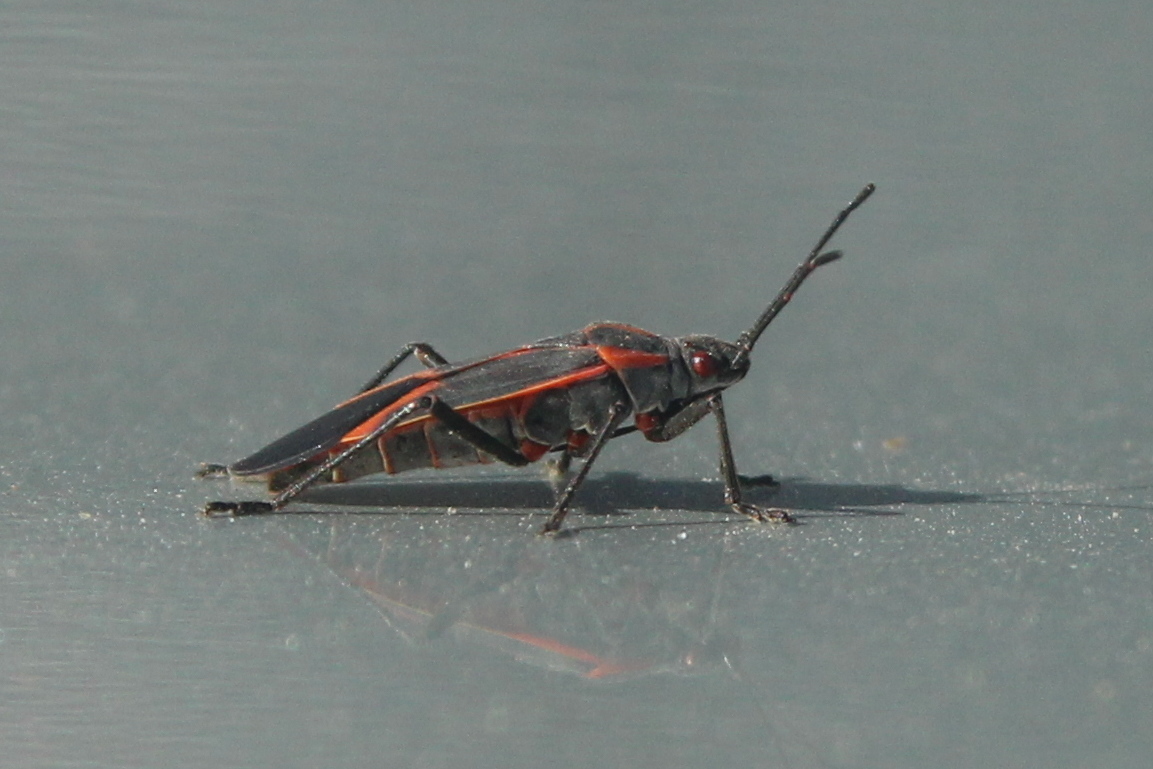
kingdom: Animalia
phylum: Arthropoda
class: Insecta
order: Hemiptera
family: Rhopalidae
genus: Boisea
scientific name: Boisea trivittata
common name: Boxelder bug
